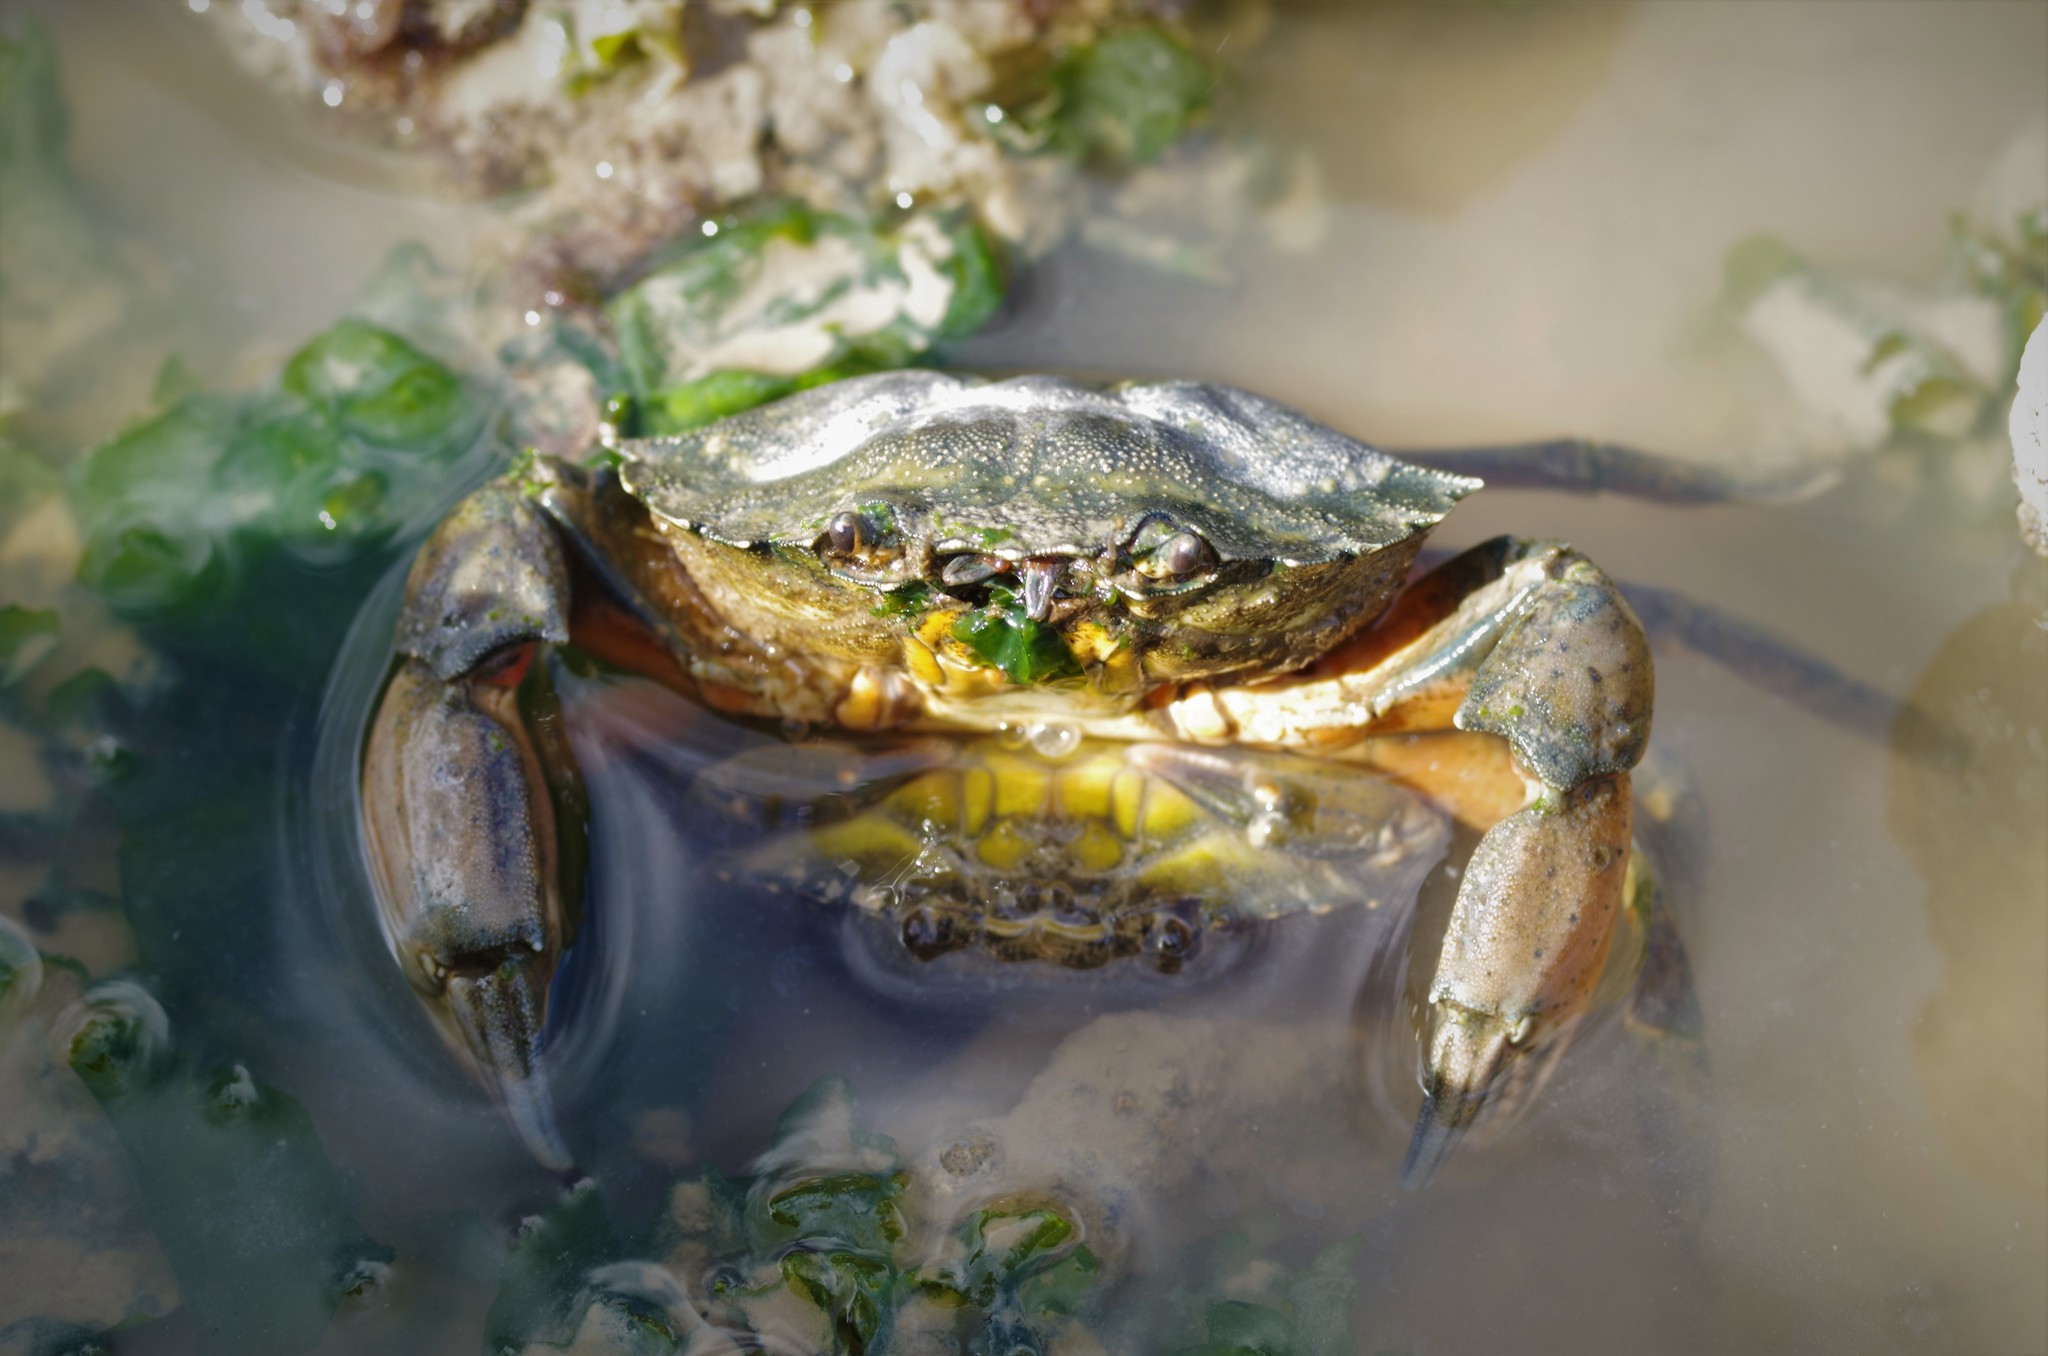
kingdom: Animalia
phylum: Arthropoda
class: Malacostraca
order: Decapoda
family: Carcinidae
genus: Carcinus
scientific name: Carcinus maenas
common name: European green crab
